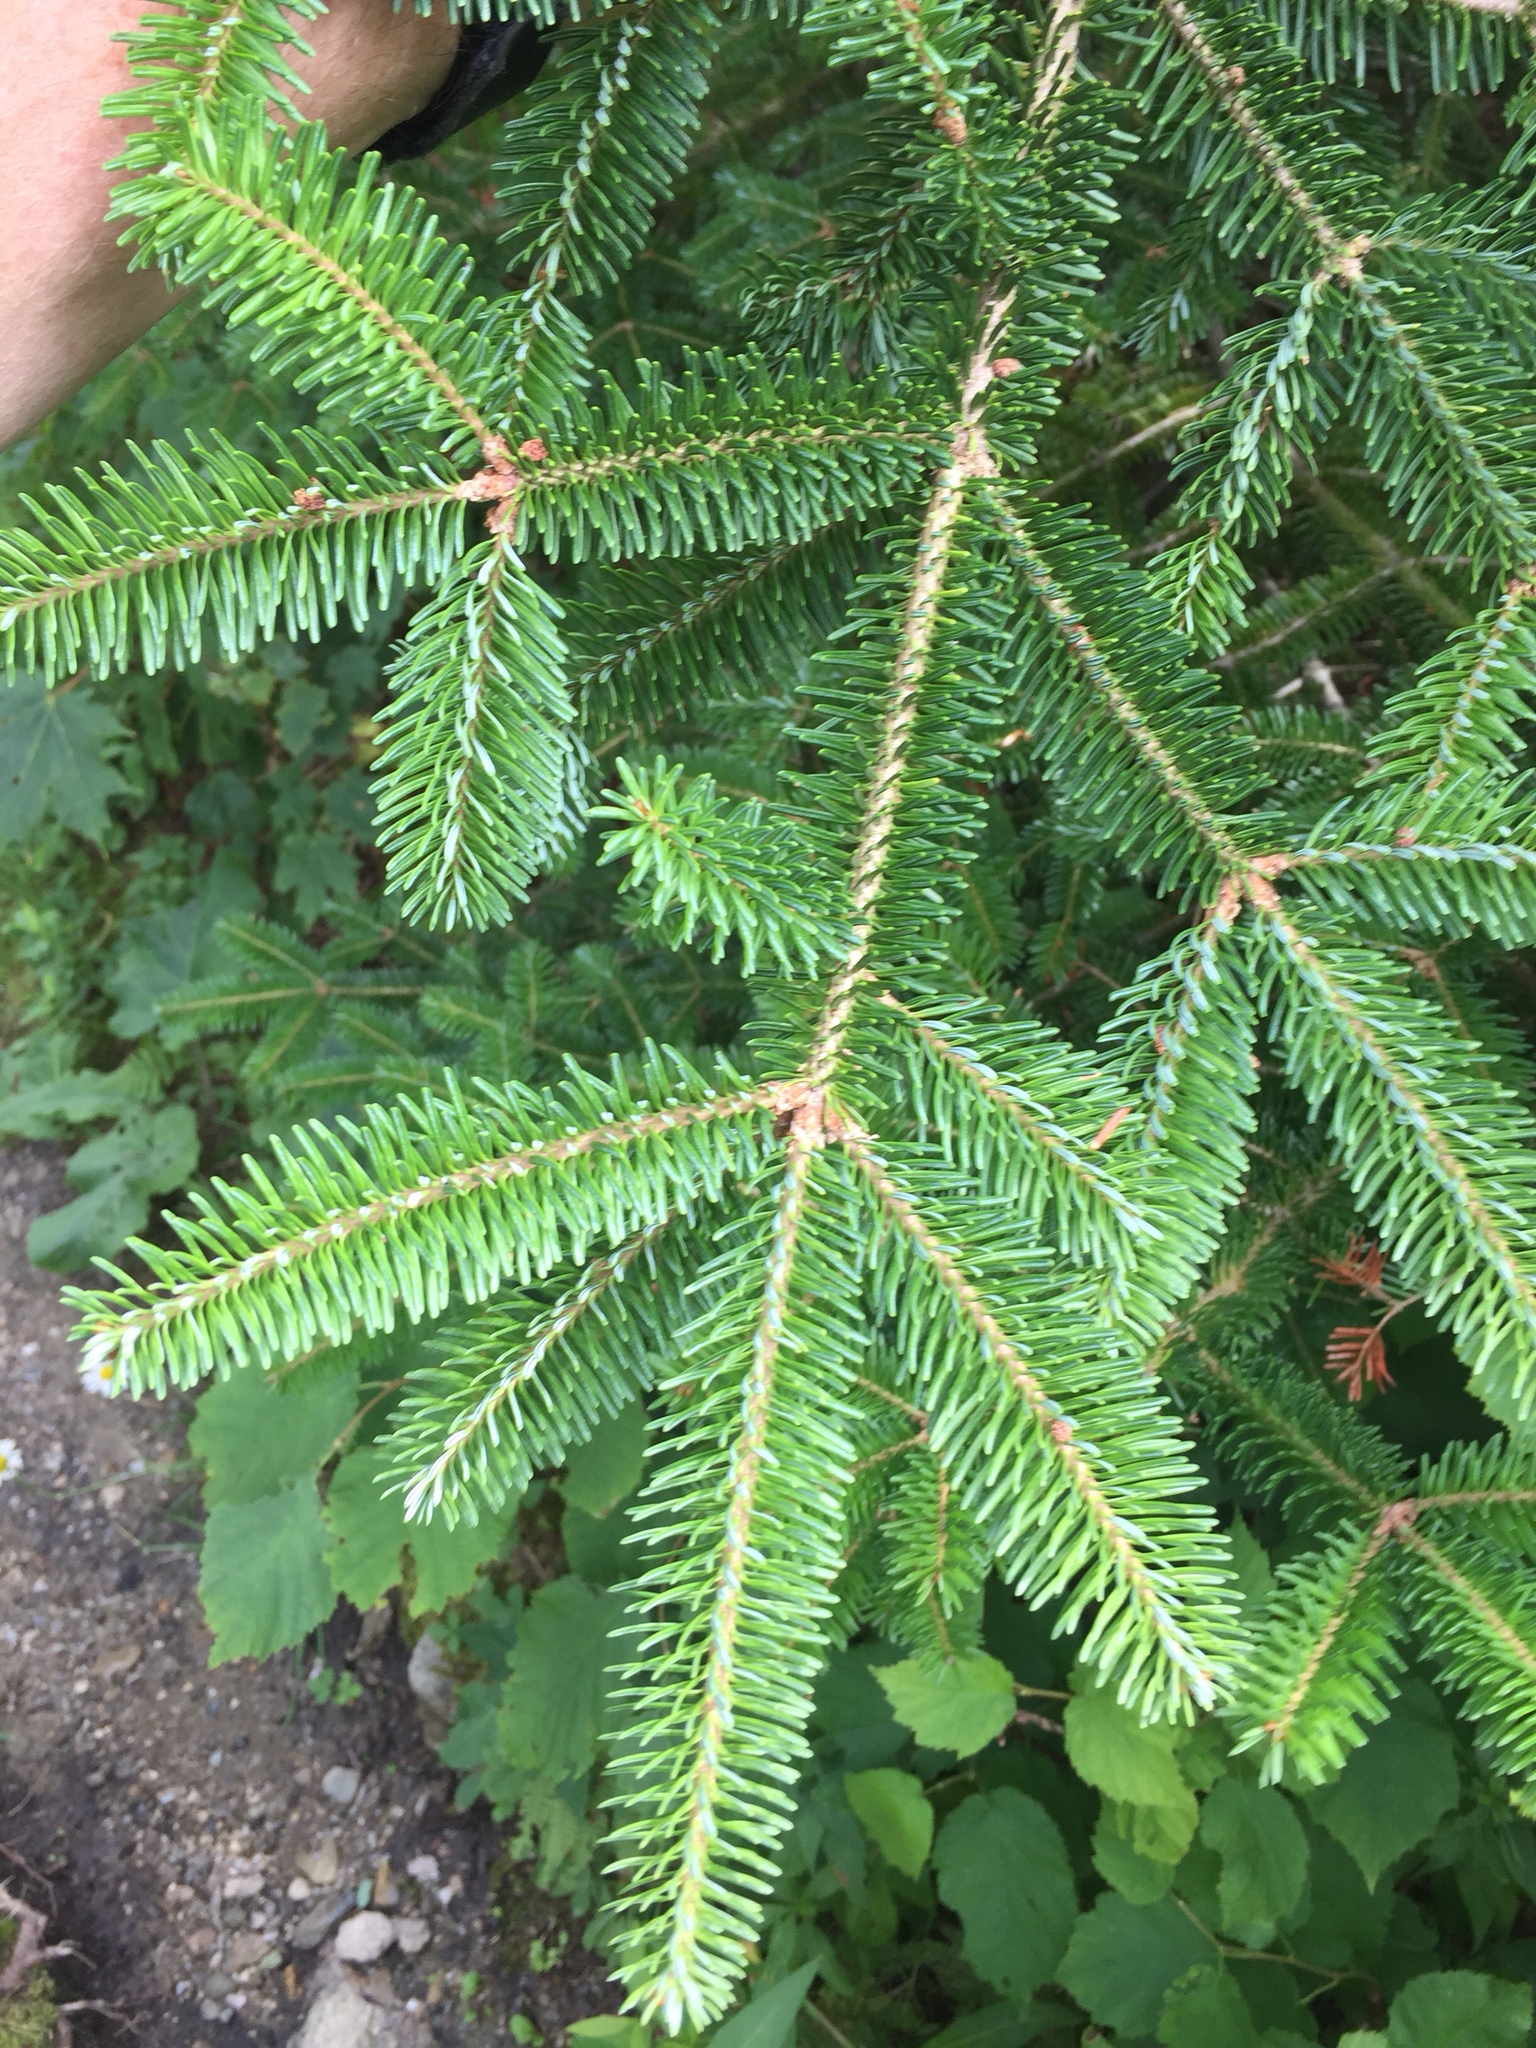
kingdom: Plantae
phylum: Tracheophyta
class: Pinopsida
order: Pinales
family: Pinaceae
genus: Abies
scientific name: Abies balsamea
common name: Balsam fir
